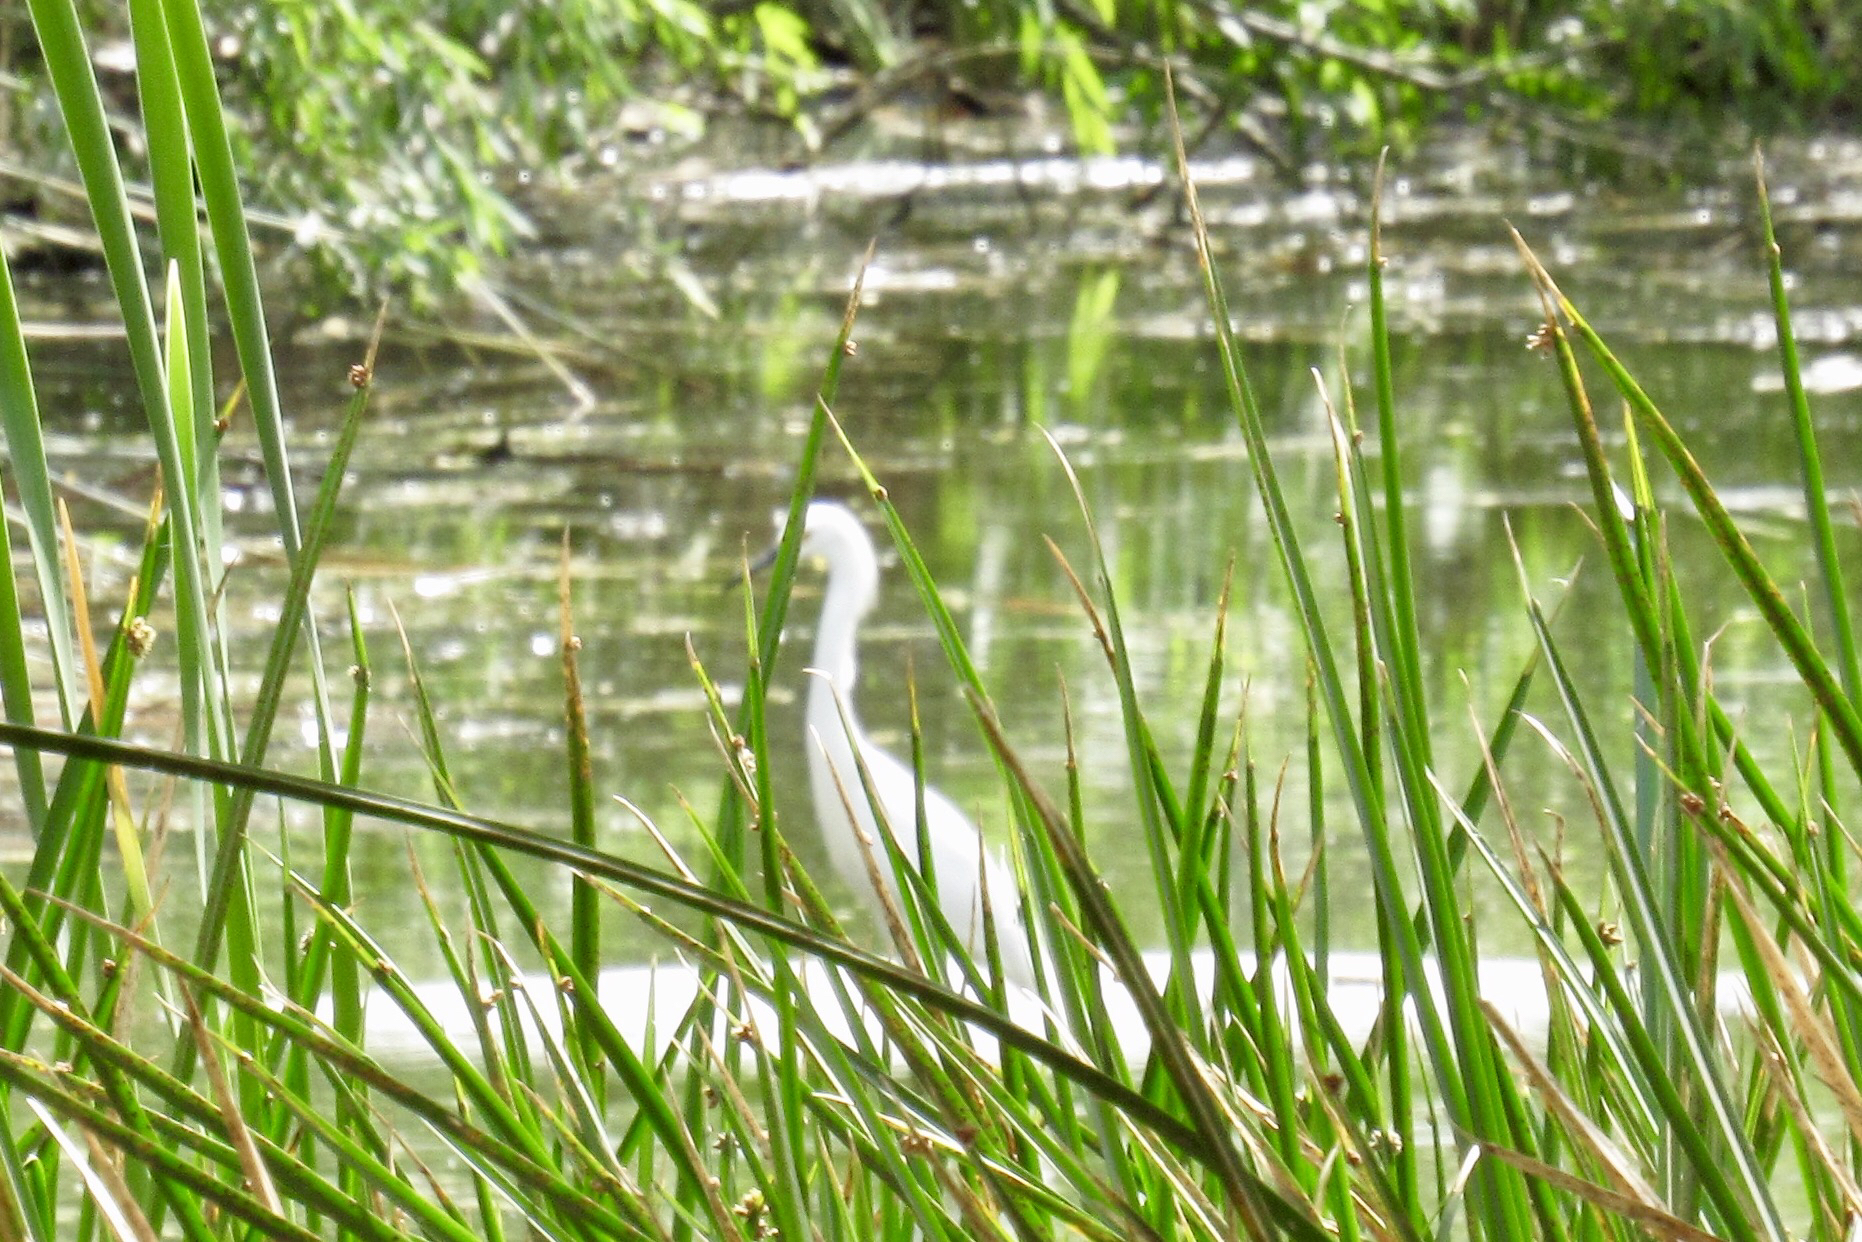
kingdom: Animalia
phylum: Chordata
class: Aves
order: Pelecaniformes
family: Ardeidae
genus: Egretta
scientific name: Egretta thula
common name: Snowy egret
